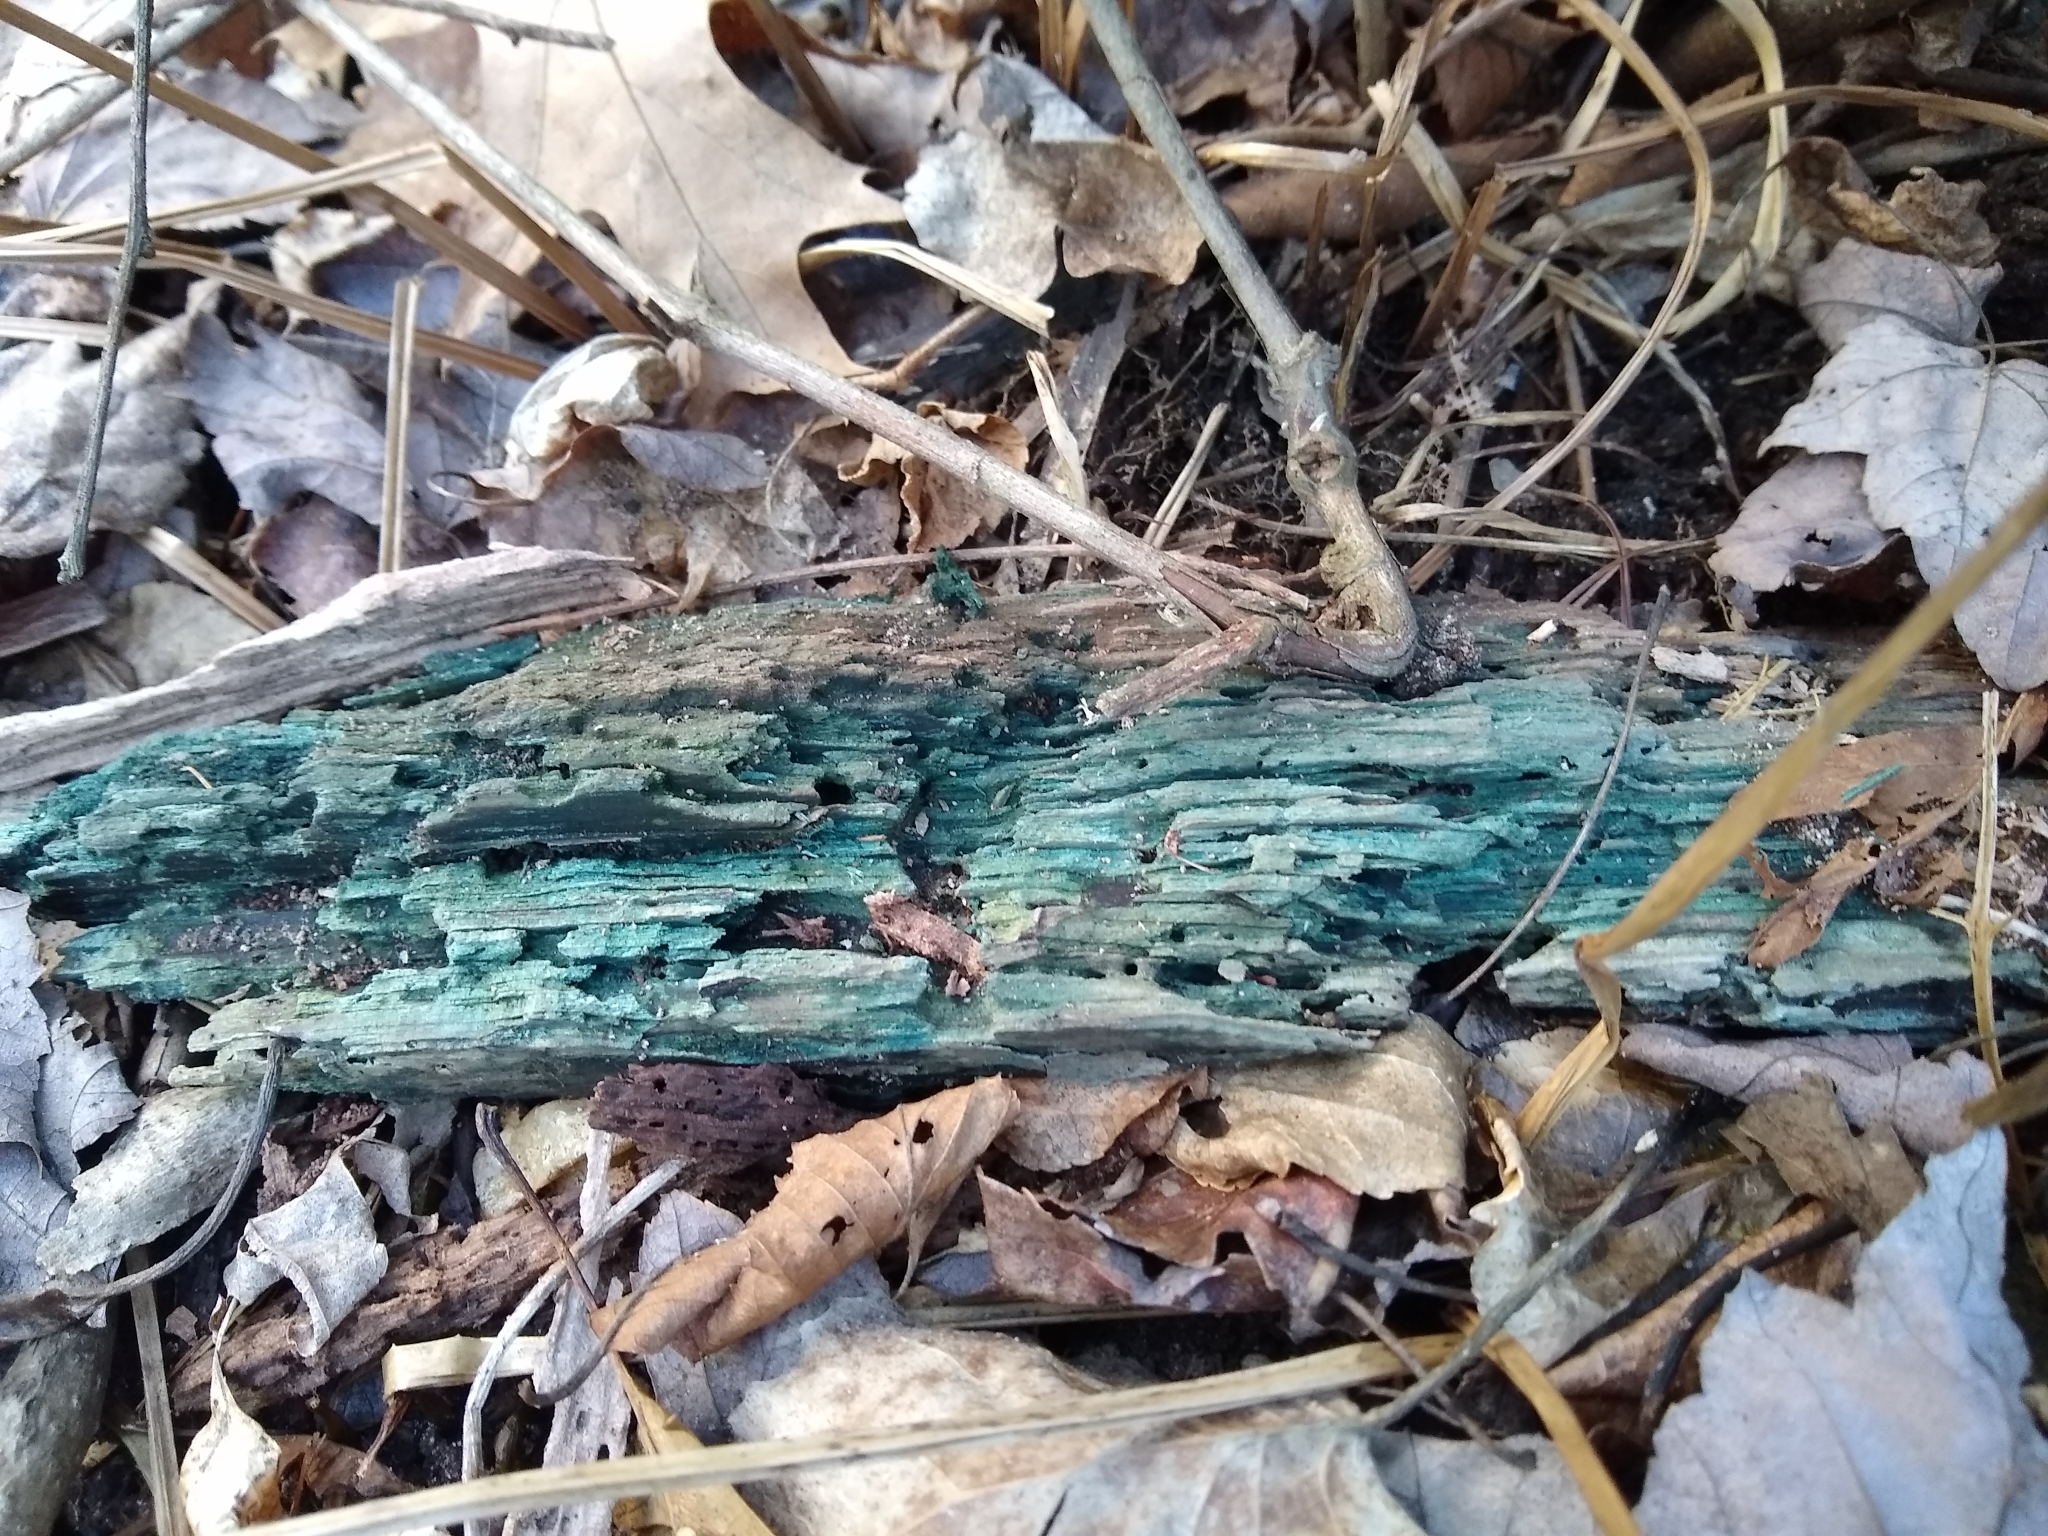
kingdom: Fungi
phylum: Ascomycota
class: Leotiomycetes
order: Helotiales
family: Chlorociboriaceae
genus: Chlorociboria
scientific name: Chlorociboria
